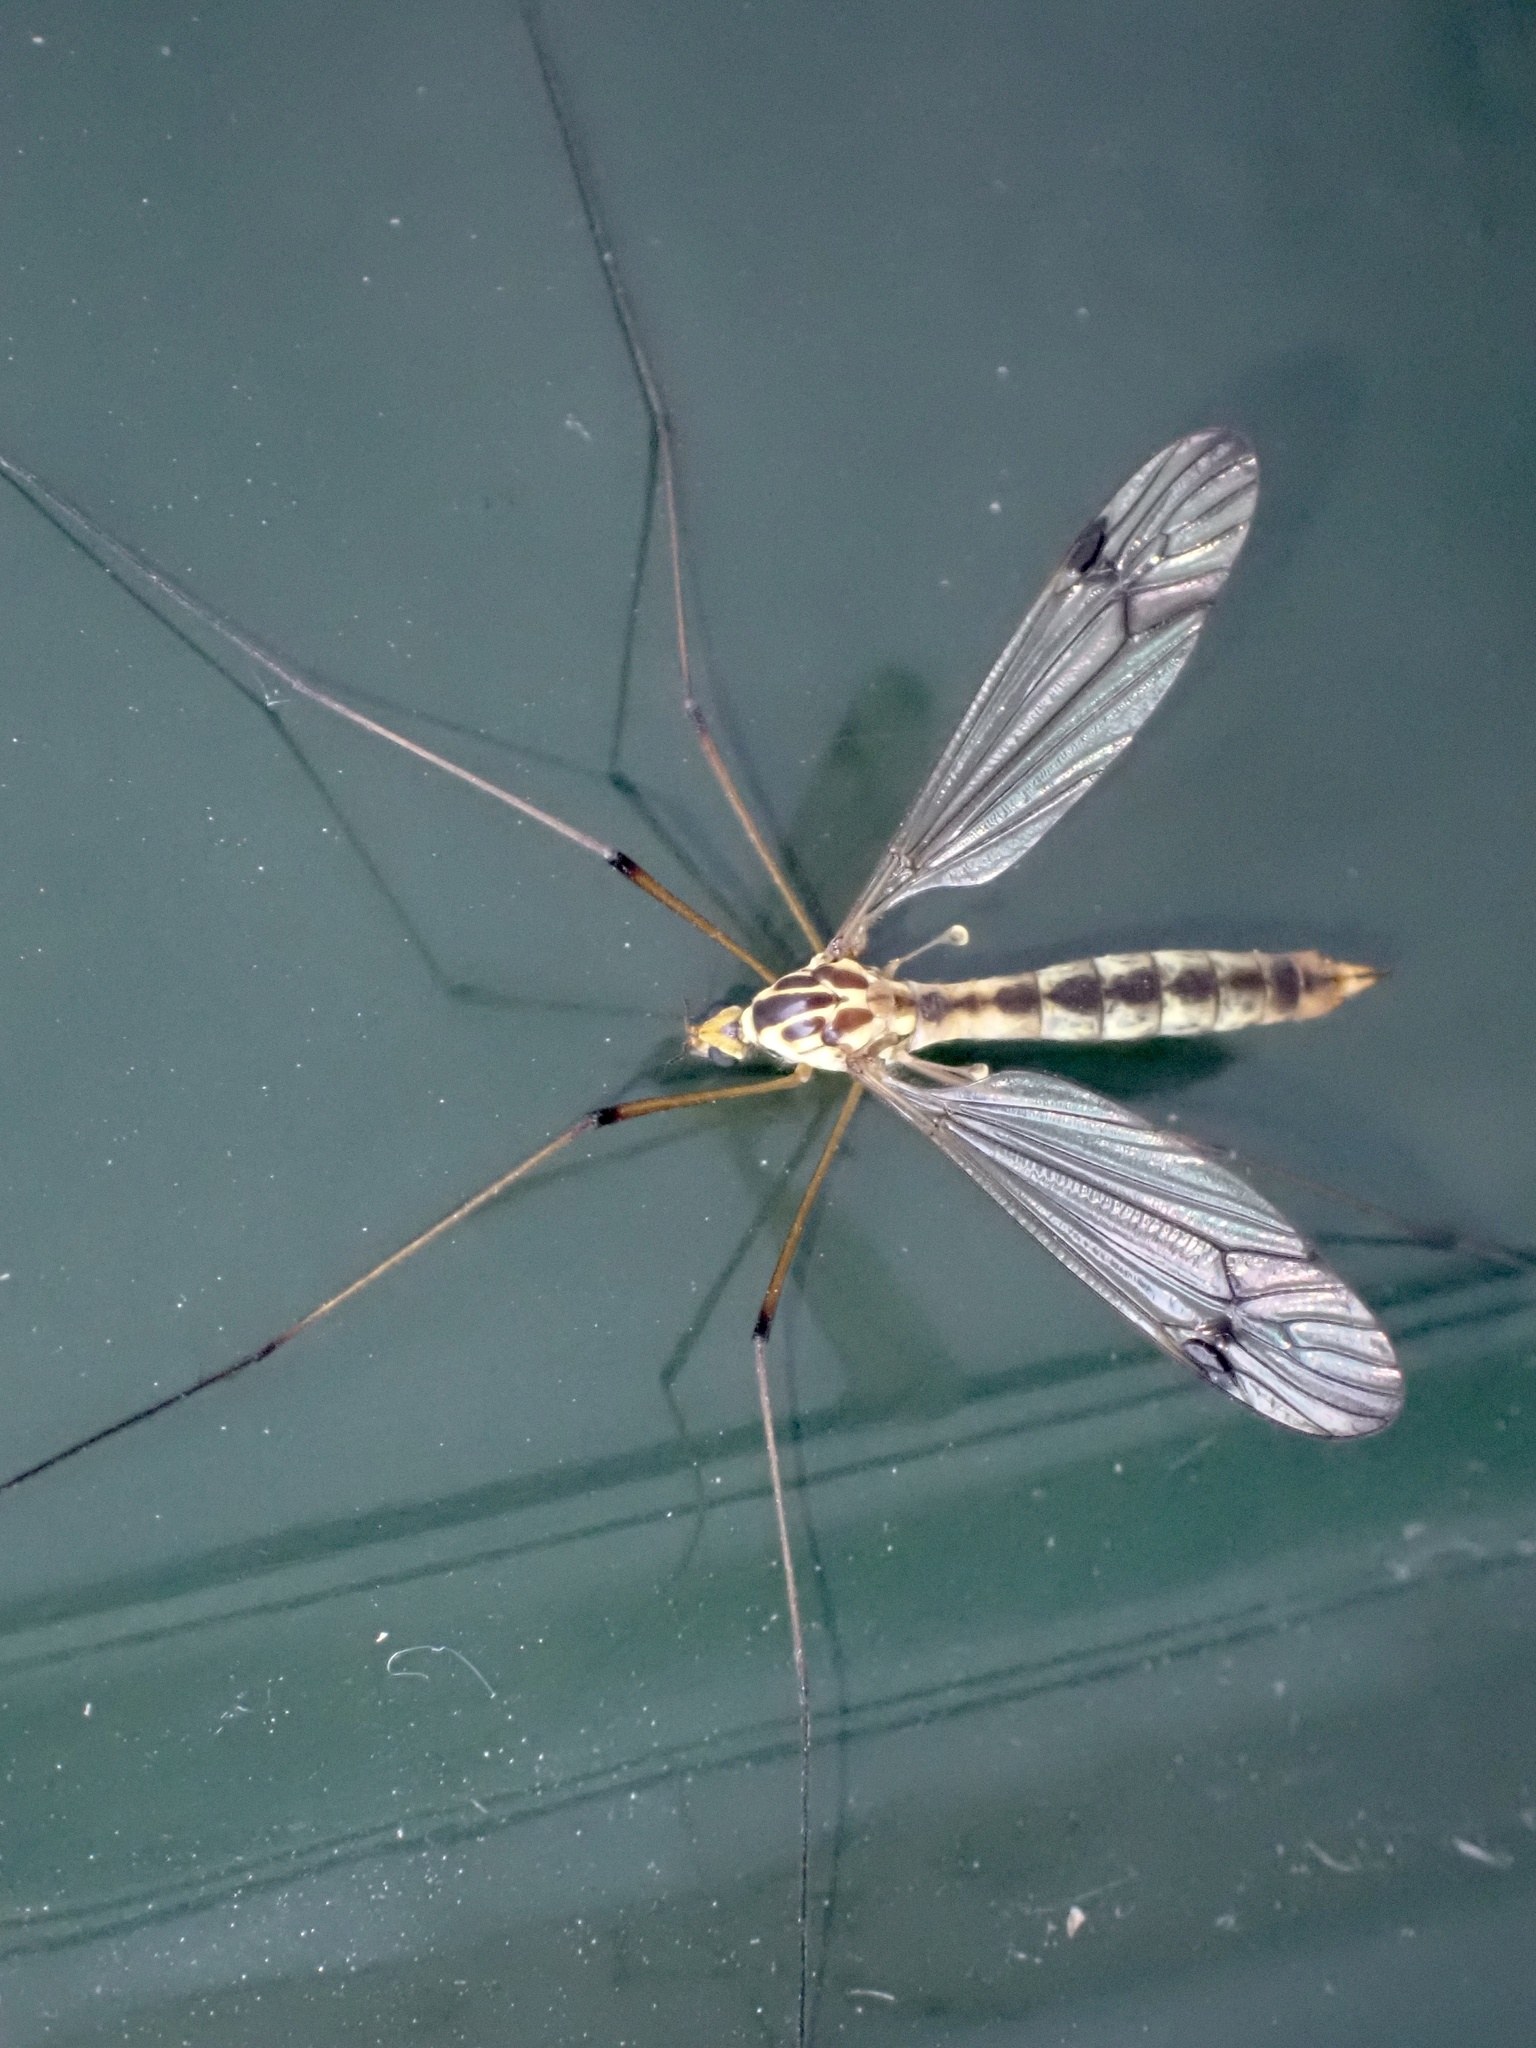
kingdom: Animalia
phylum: Arthropoda
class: Insecta
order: Diptera
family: Tipulidae
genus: Nephrotoma
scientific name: Nephrotoma quadrifaria
